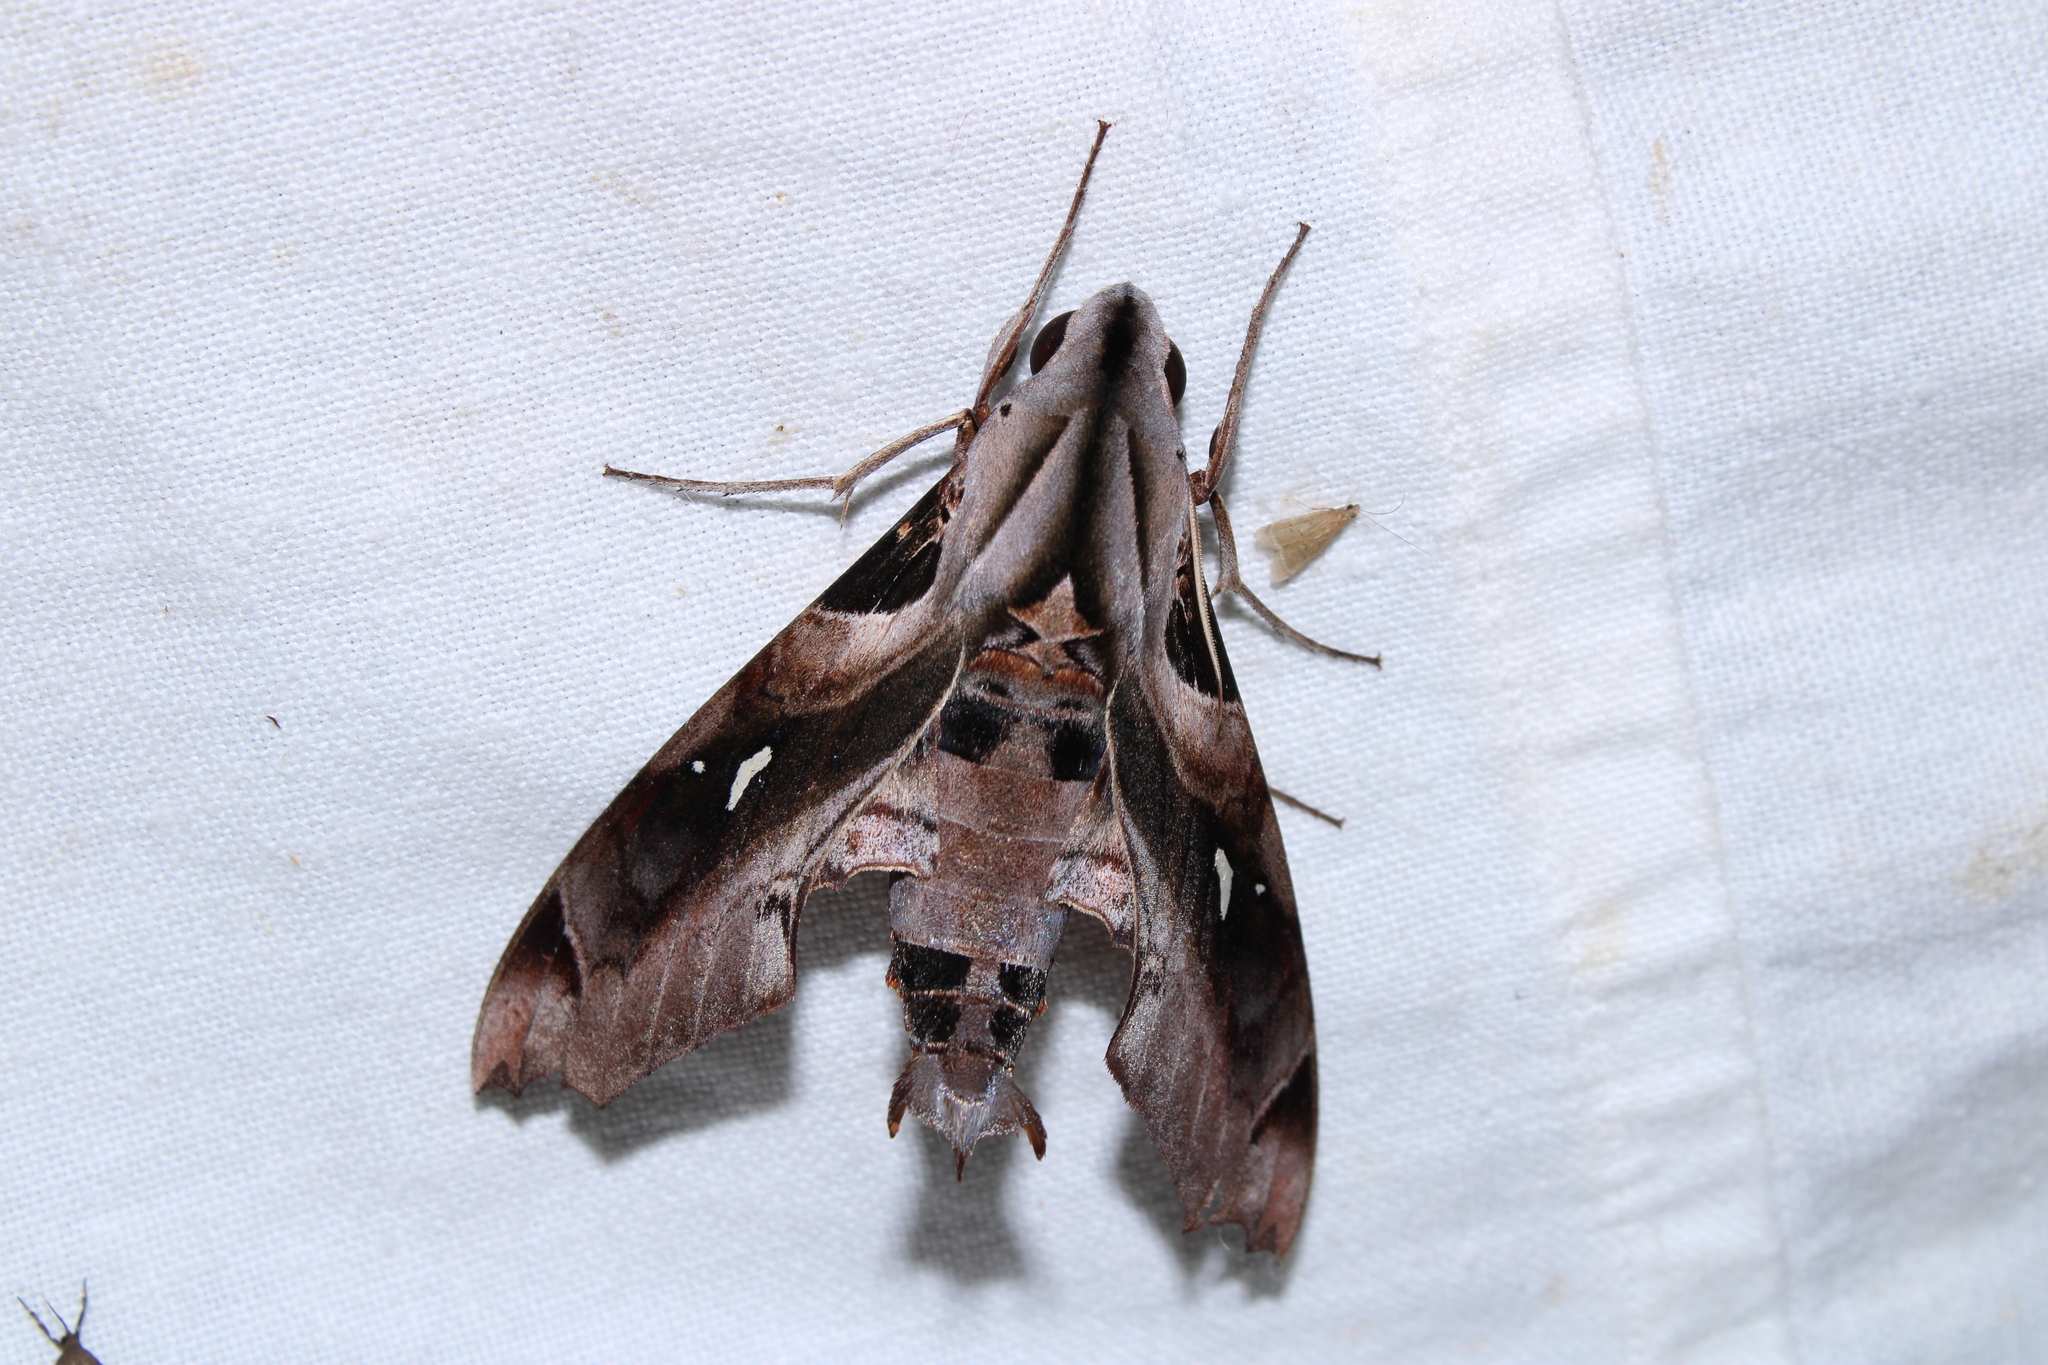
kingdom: Animalia
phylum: Arthropoda
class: Insecta
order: Lepidoptera
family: Sphingidae
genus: Madoryx
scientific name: Madoryx plutonius
